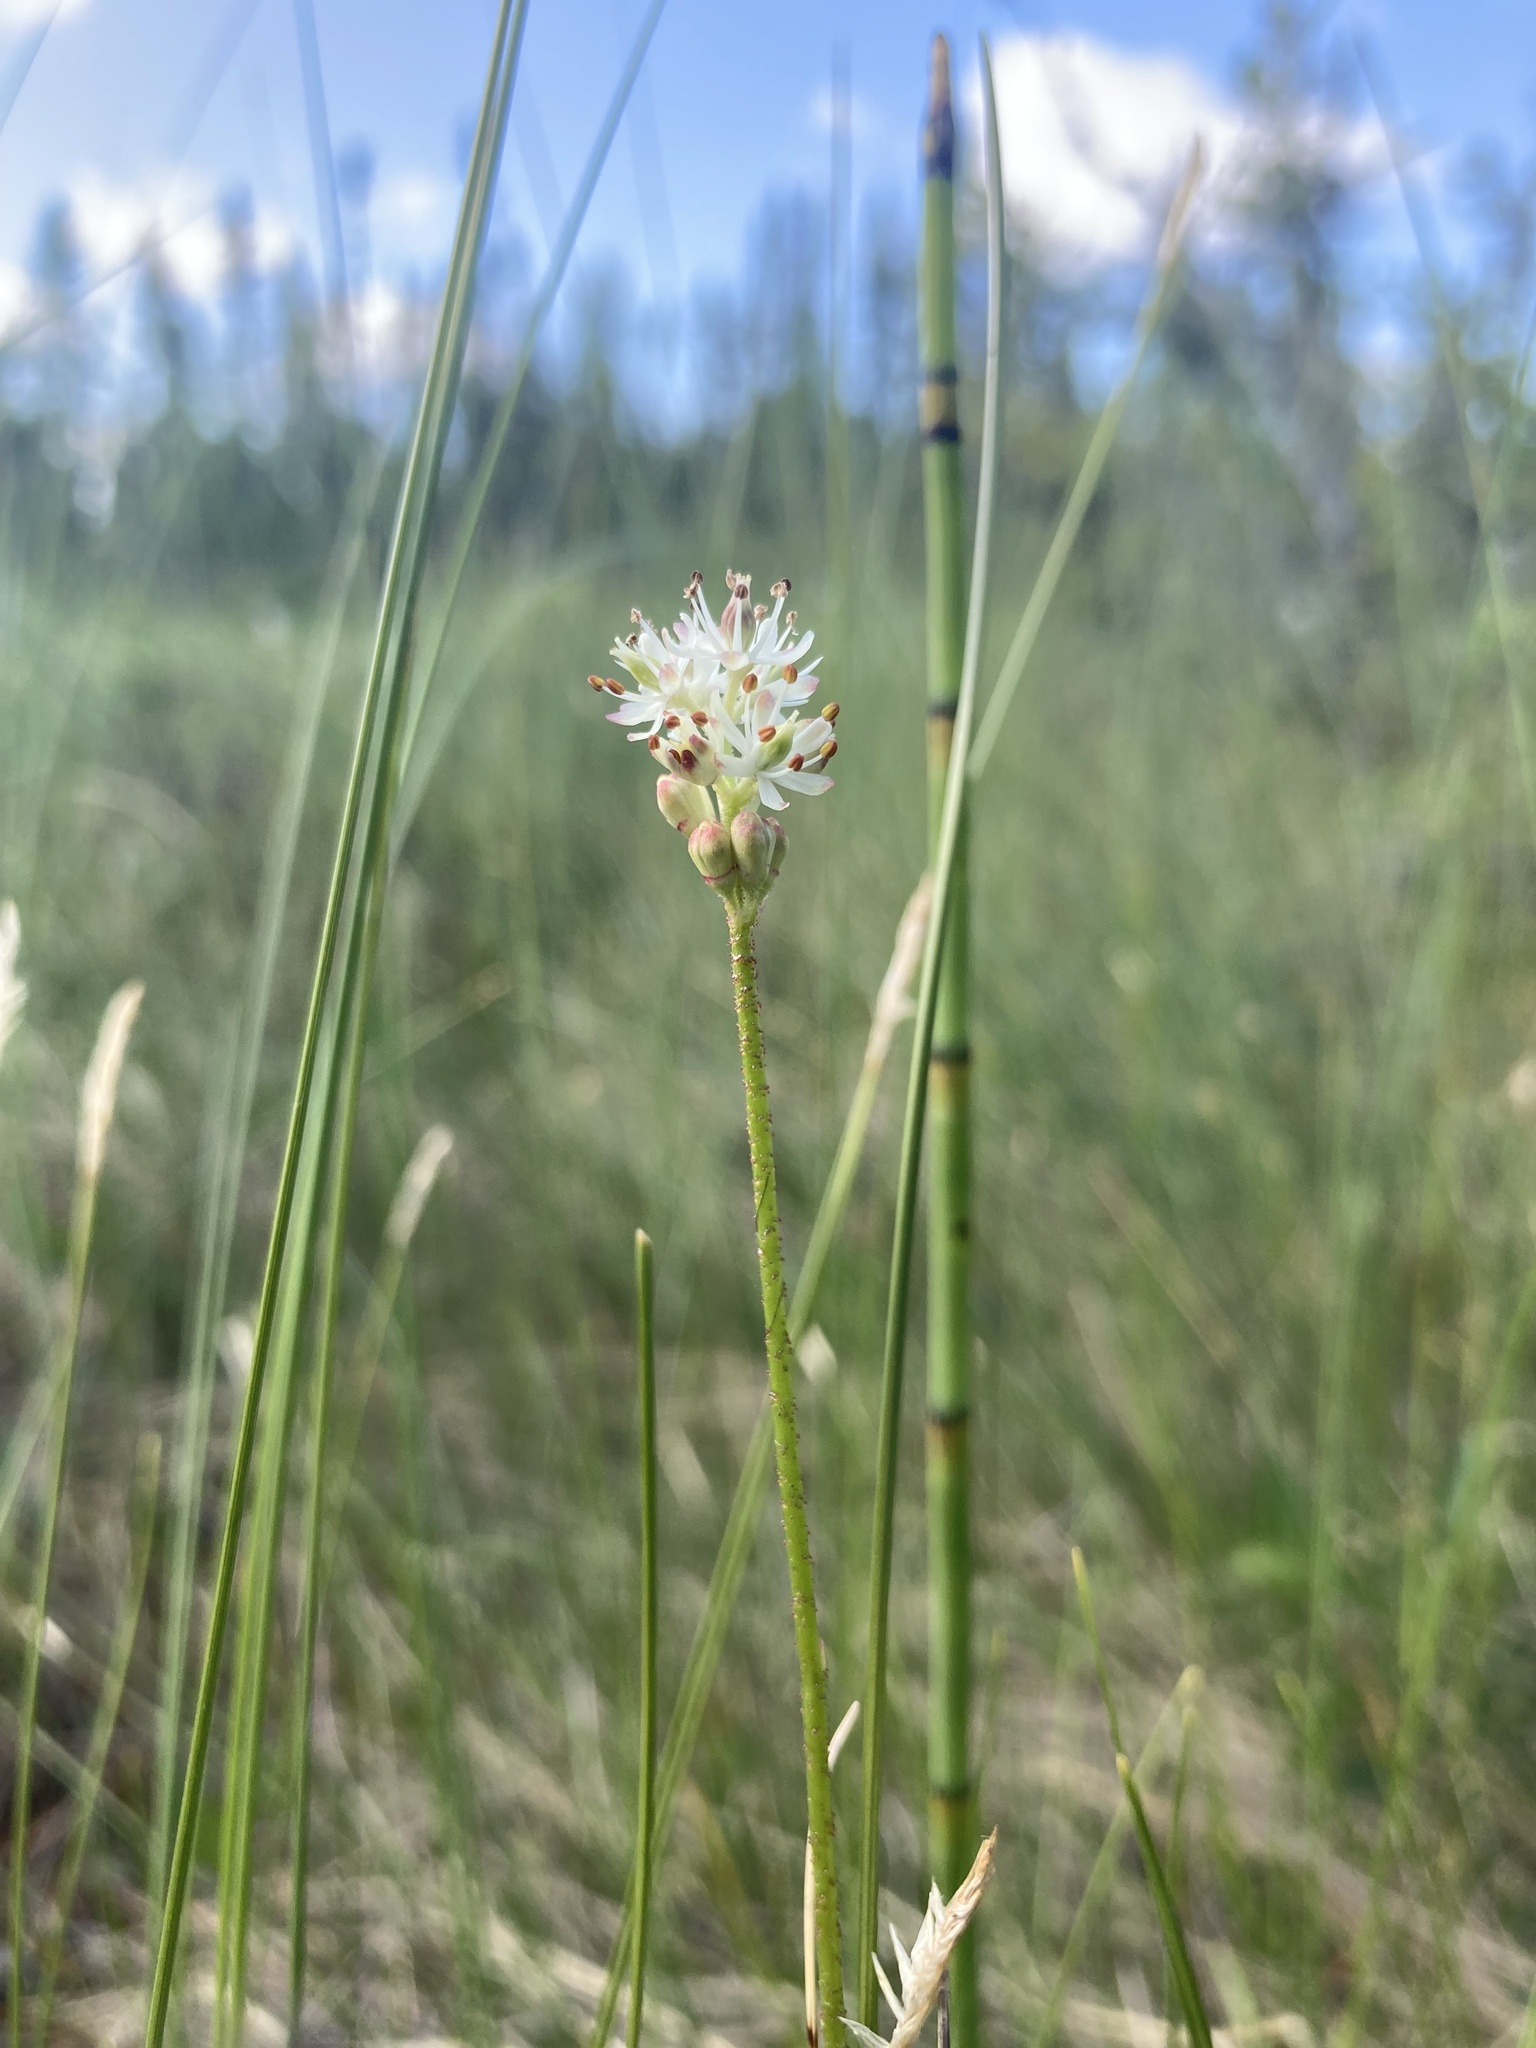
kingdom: Plantae
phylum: Tracheophyta
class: Liliopsida
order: Alismatales
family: Tofieldiaceae
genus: Triantha
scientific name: Triantha glutinosa
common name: Glutinous tofieldia
